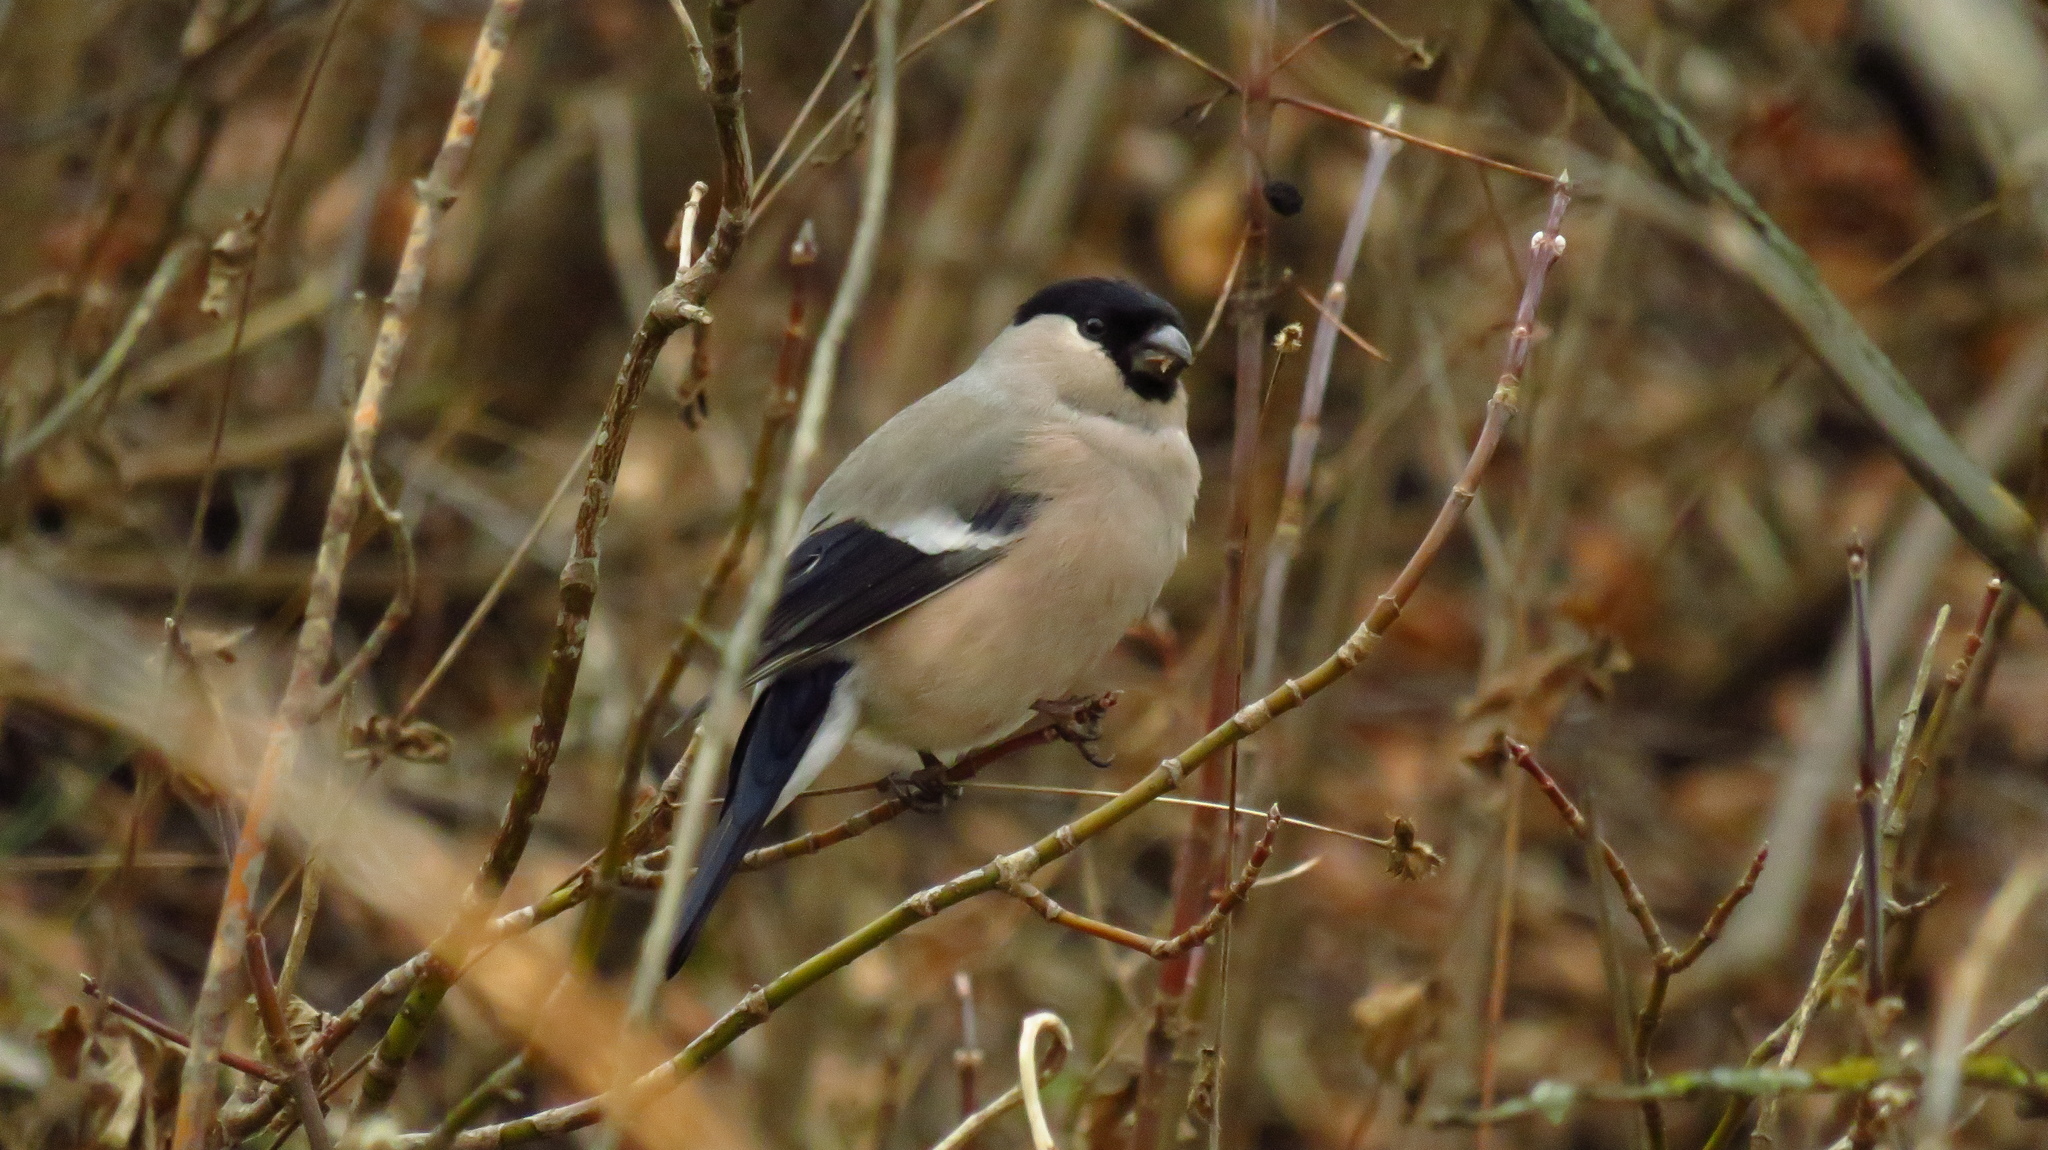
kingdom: Animalia
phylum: Chordata
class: Aves
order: Passeriformes
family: Fringillidae
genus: Pyrrhula
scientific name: Pyrrhula pyrrhula
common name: Eurasian bullfinch
